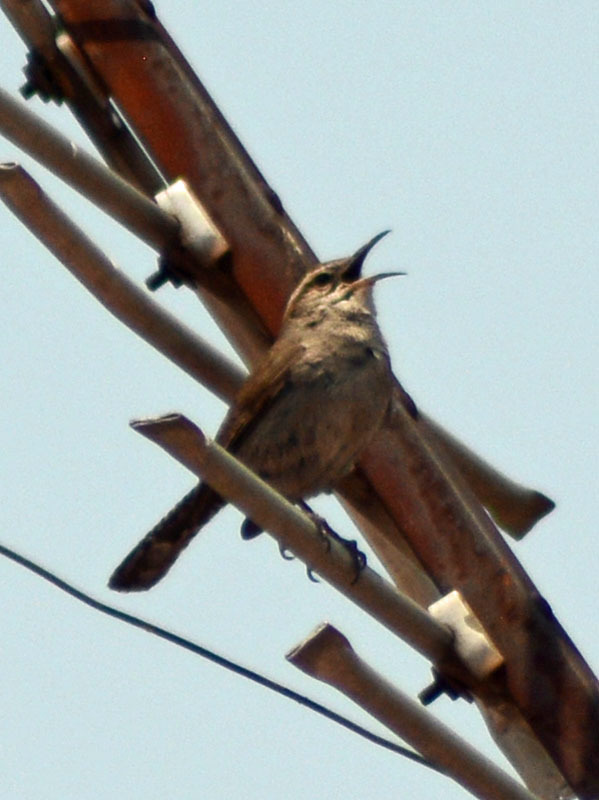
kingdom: Animalia
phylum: Chordata
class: Aves
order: Passeriformes
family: Troglodytidae
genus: Thryomanes
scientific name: Thryomanes bewickii
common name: Bewick's wren
